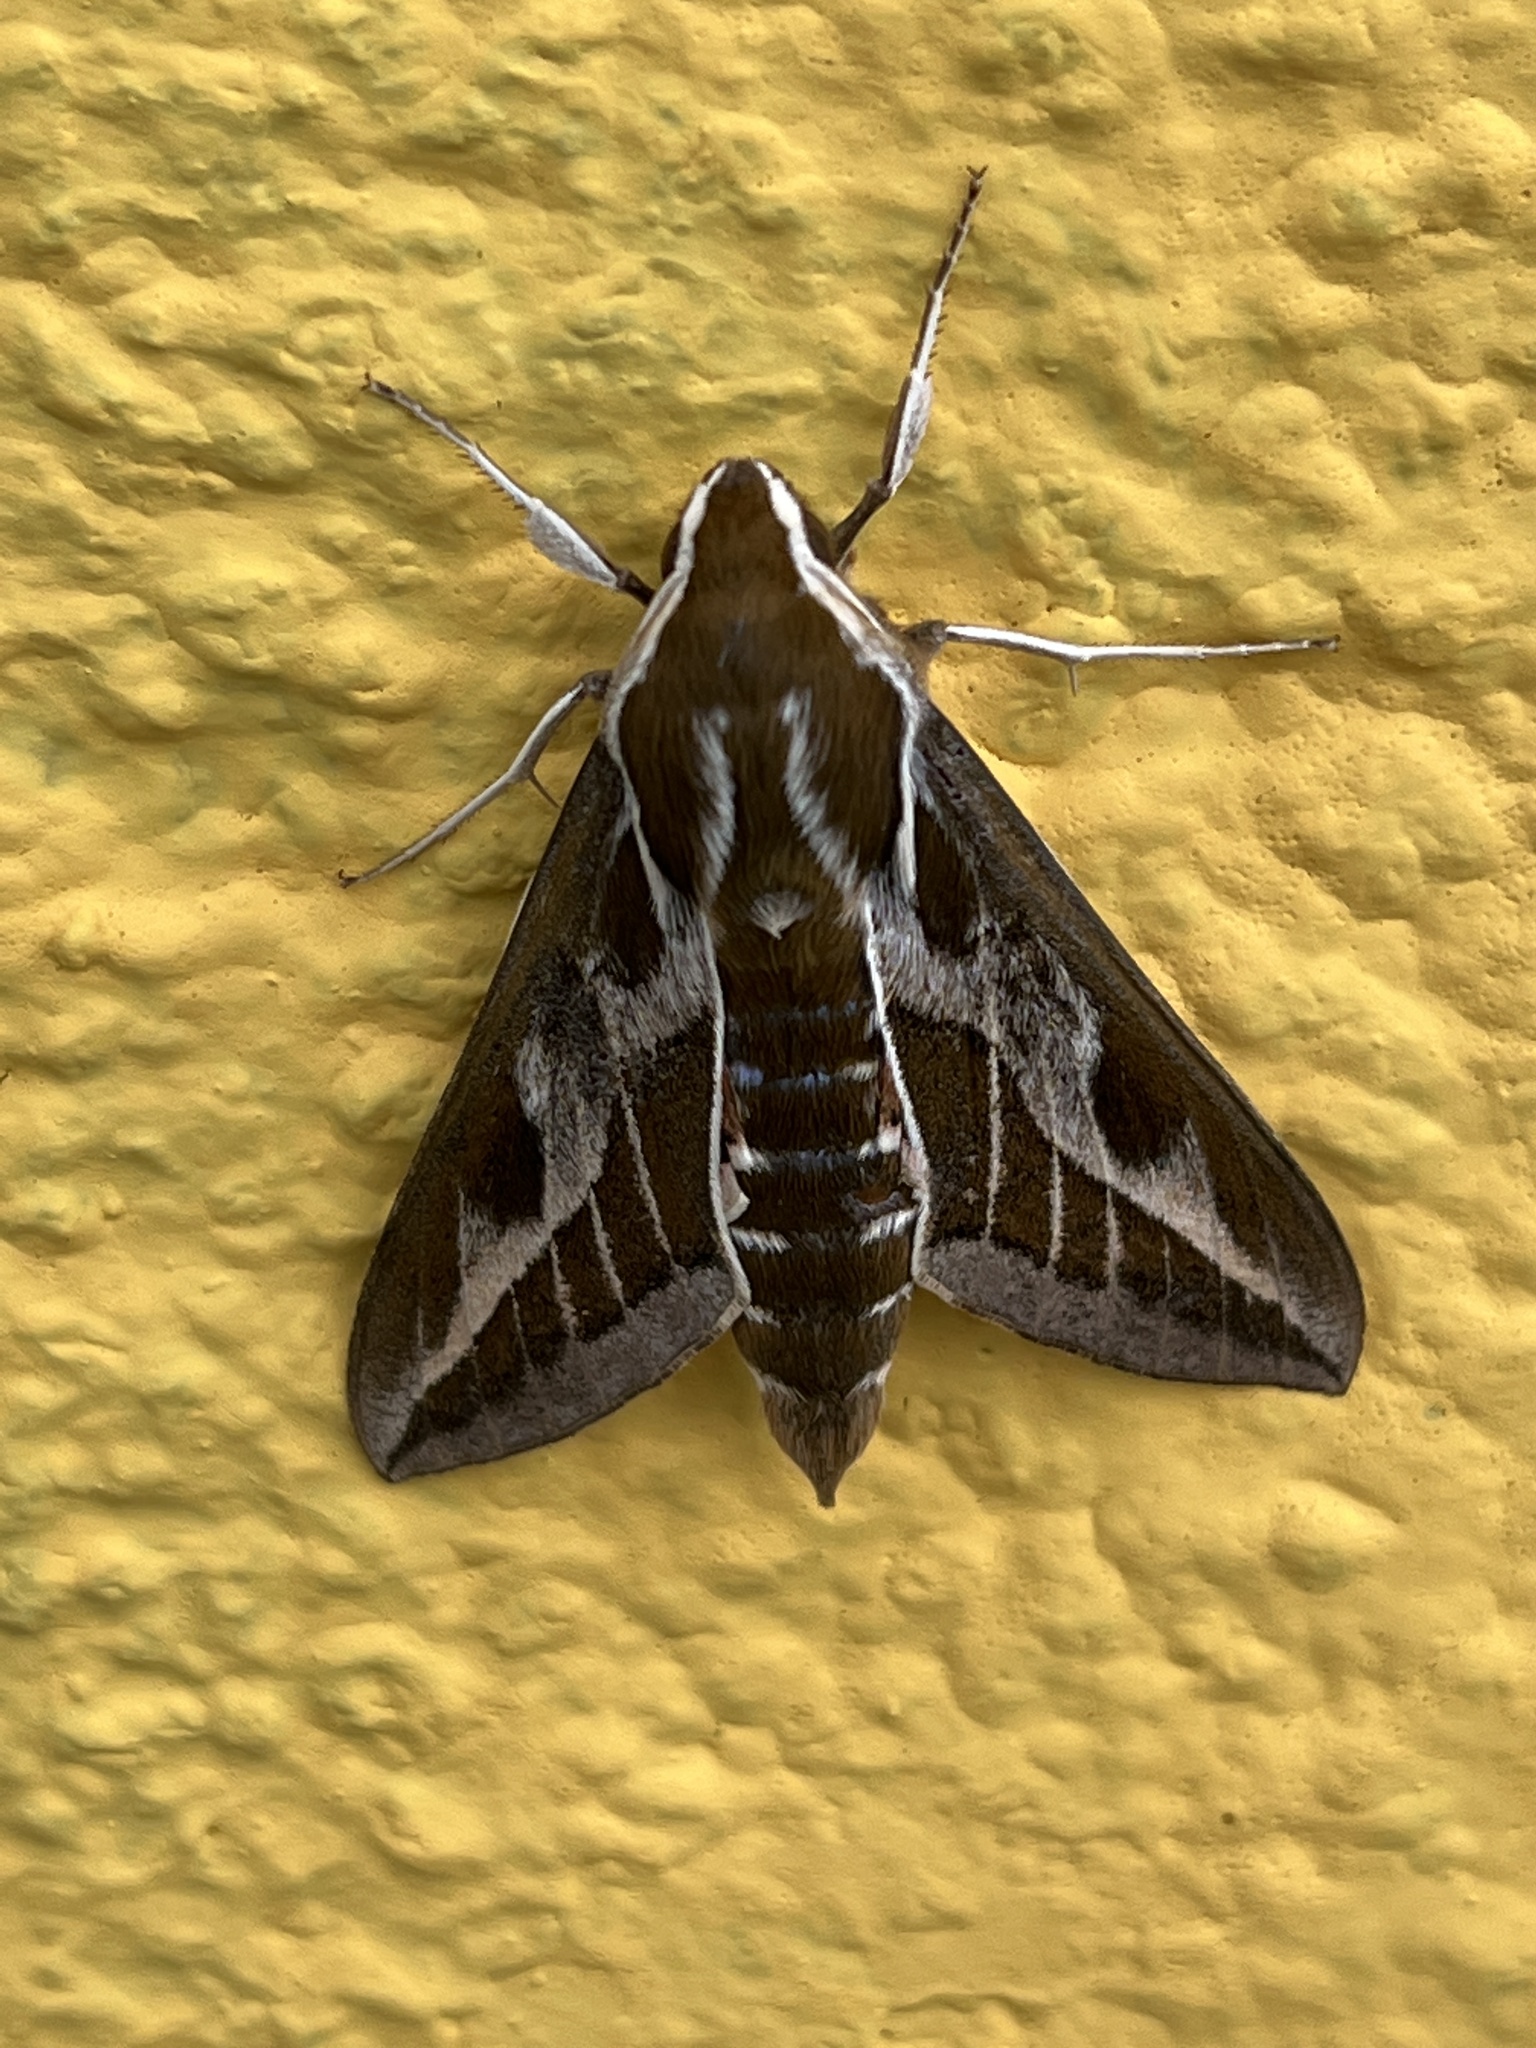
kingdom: Animalia
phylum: Arthropoda
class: Insecta
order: Lepidoptera
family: Sphingidae
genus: Hyles
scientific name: Hyles tithymali
